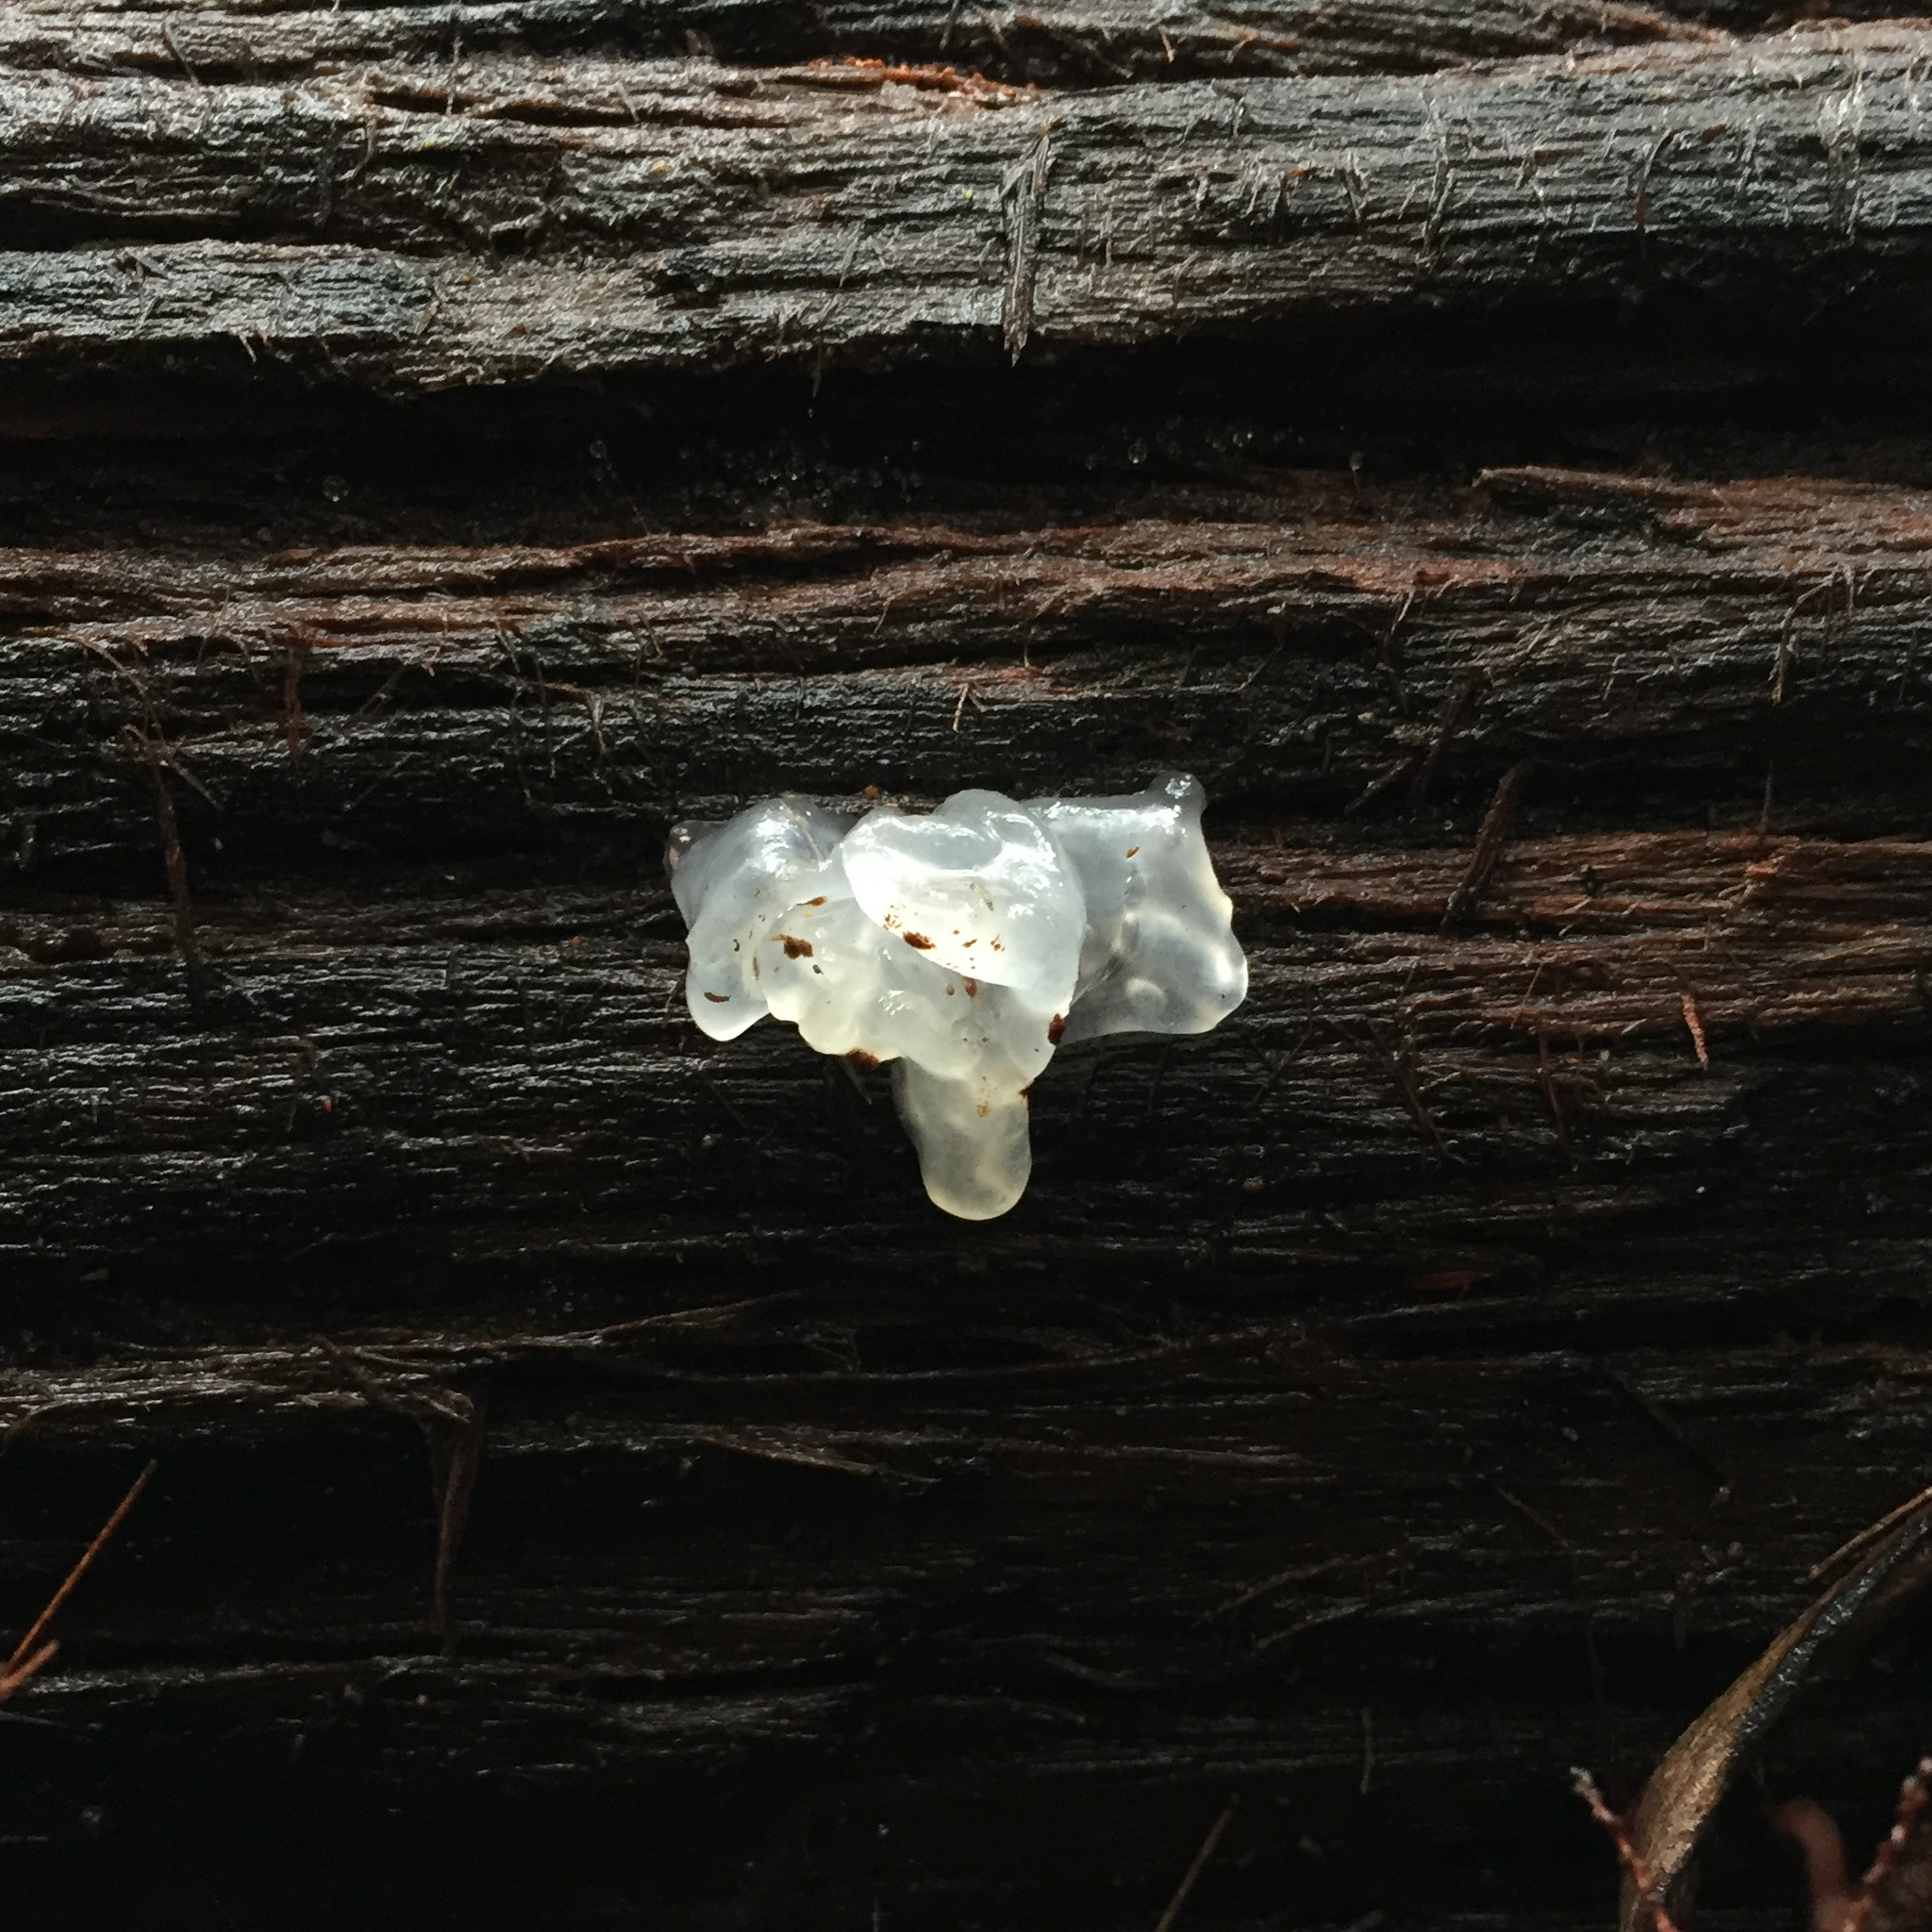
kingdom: Fungi
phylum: Basidiomycota
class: Tremellomycetes
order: Tremellales
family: Tremellaceae
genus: Tremella
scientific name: Tremella fuciformis
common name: Snow fungus
